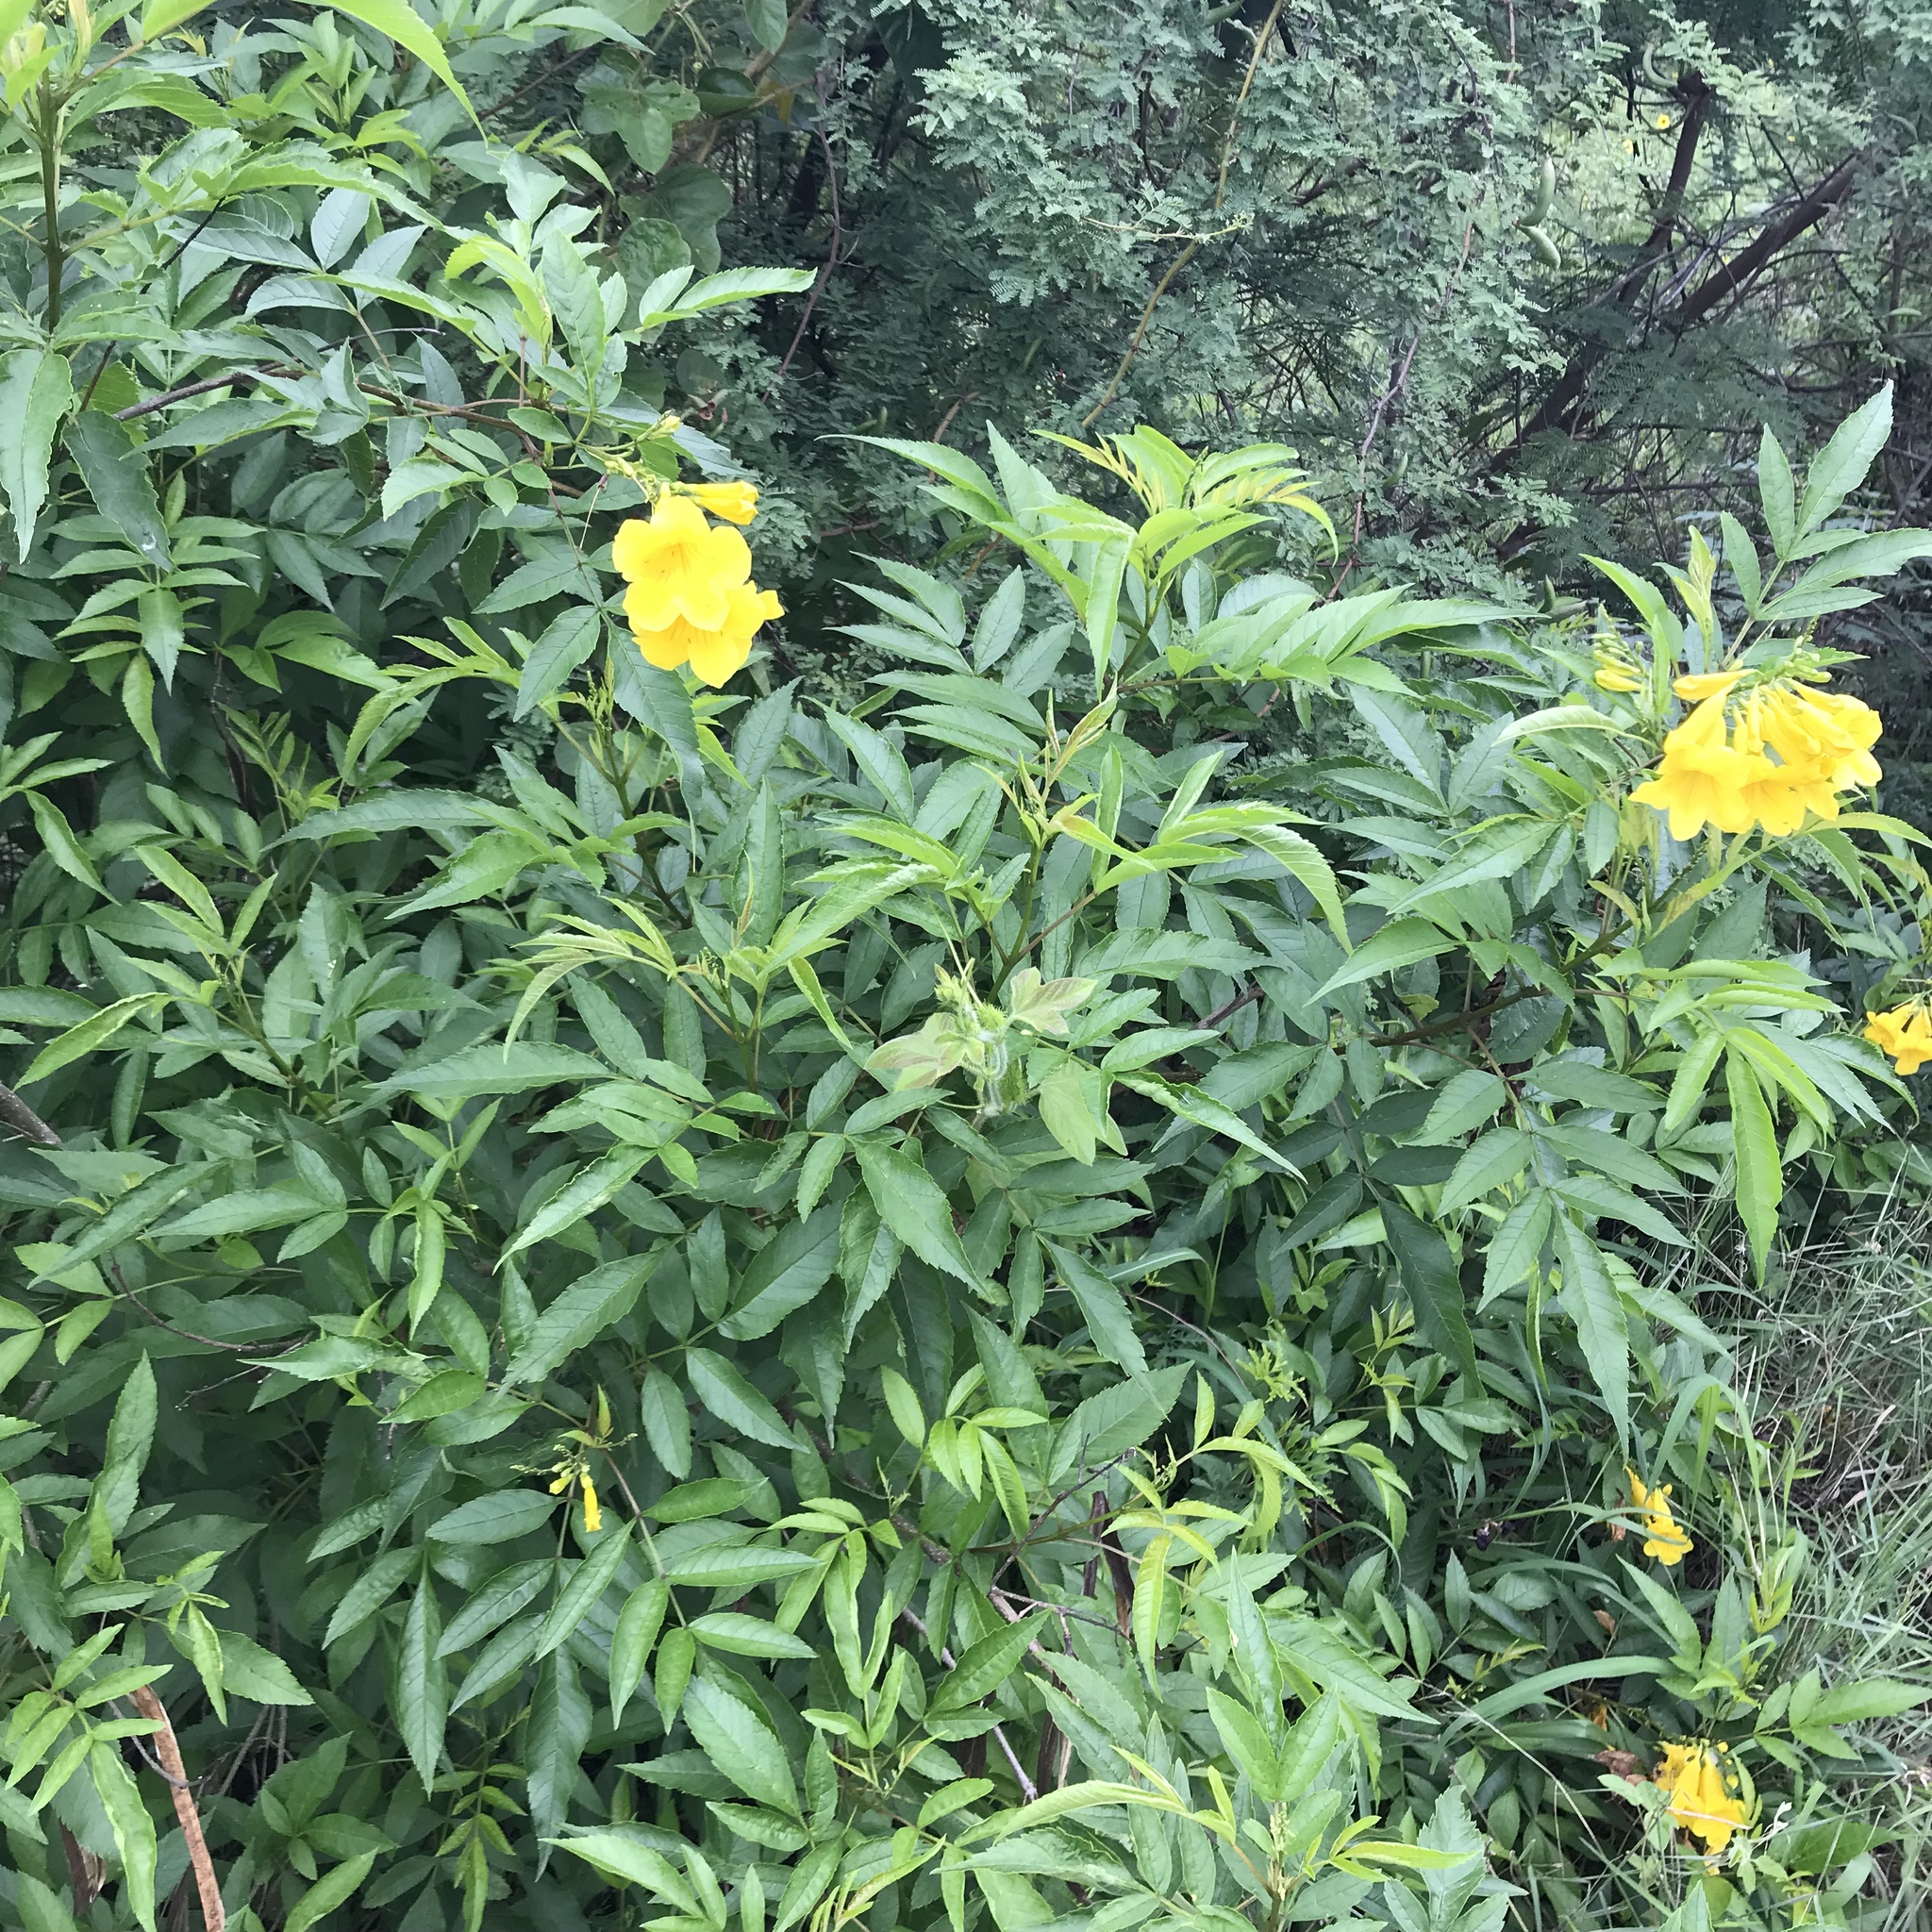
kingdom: Plantae
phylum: Tracheophyta
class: Magnoliopsida
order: Lamiales
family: Bignoniaceae
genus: Tecoma
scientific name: Tecoma stans
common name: Yellow trumpetbush
